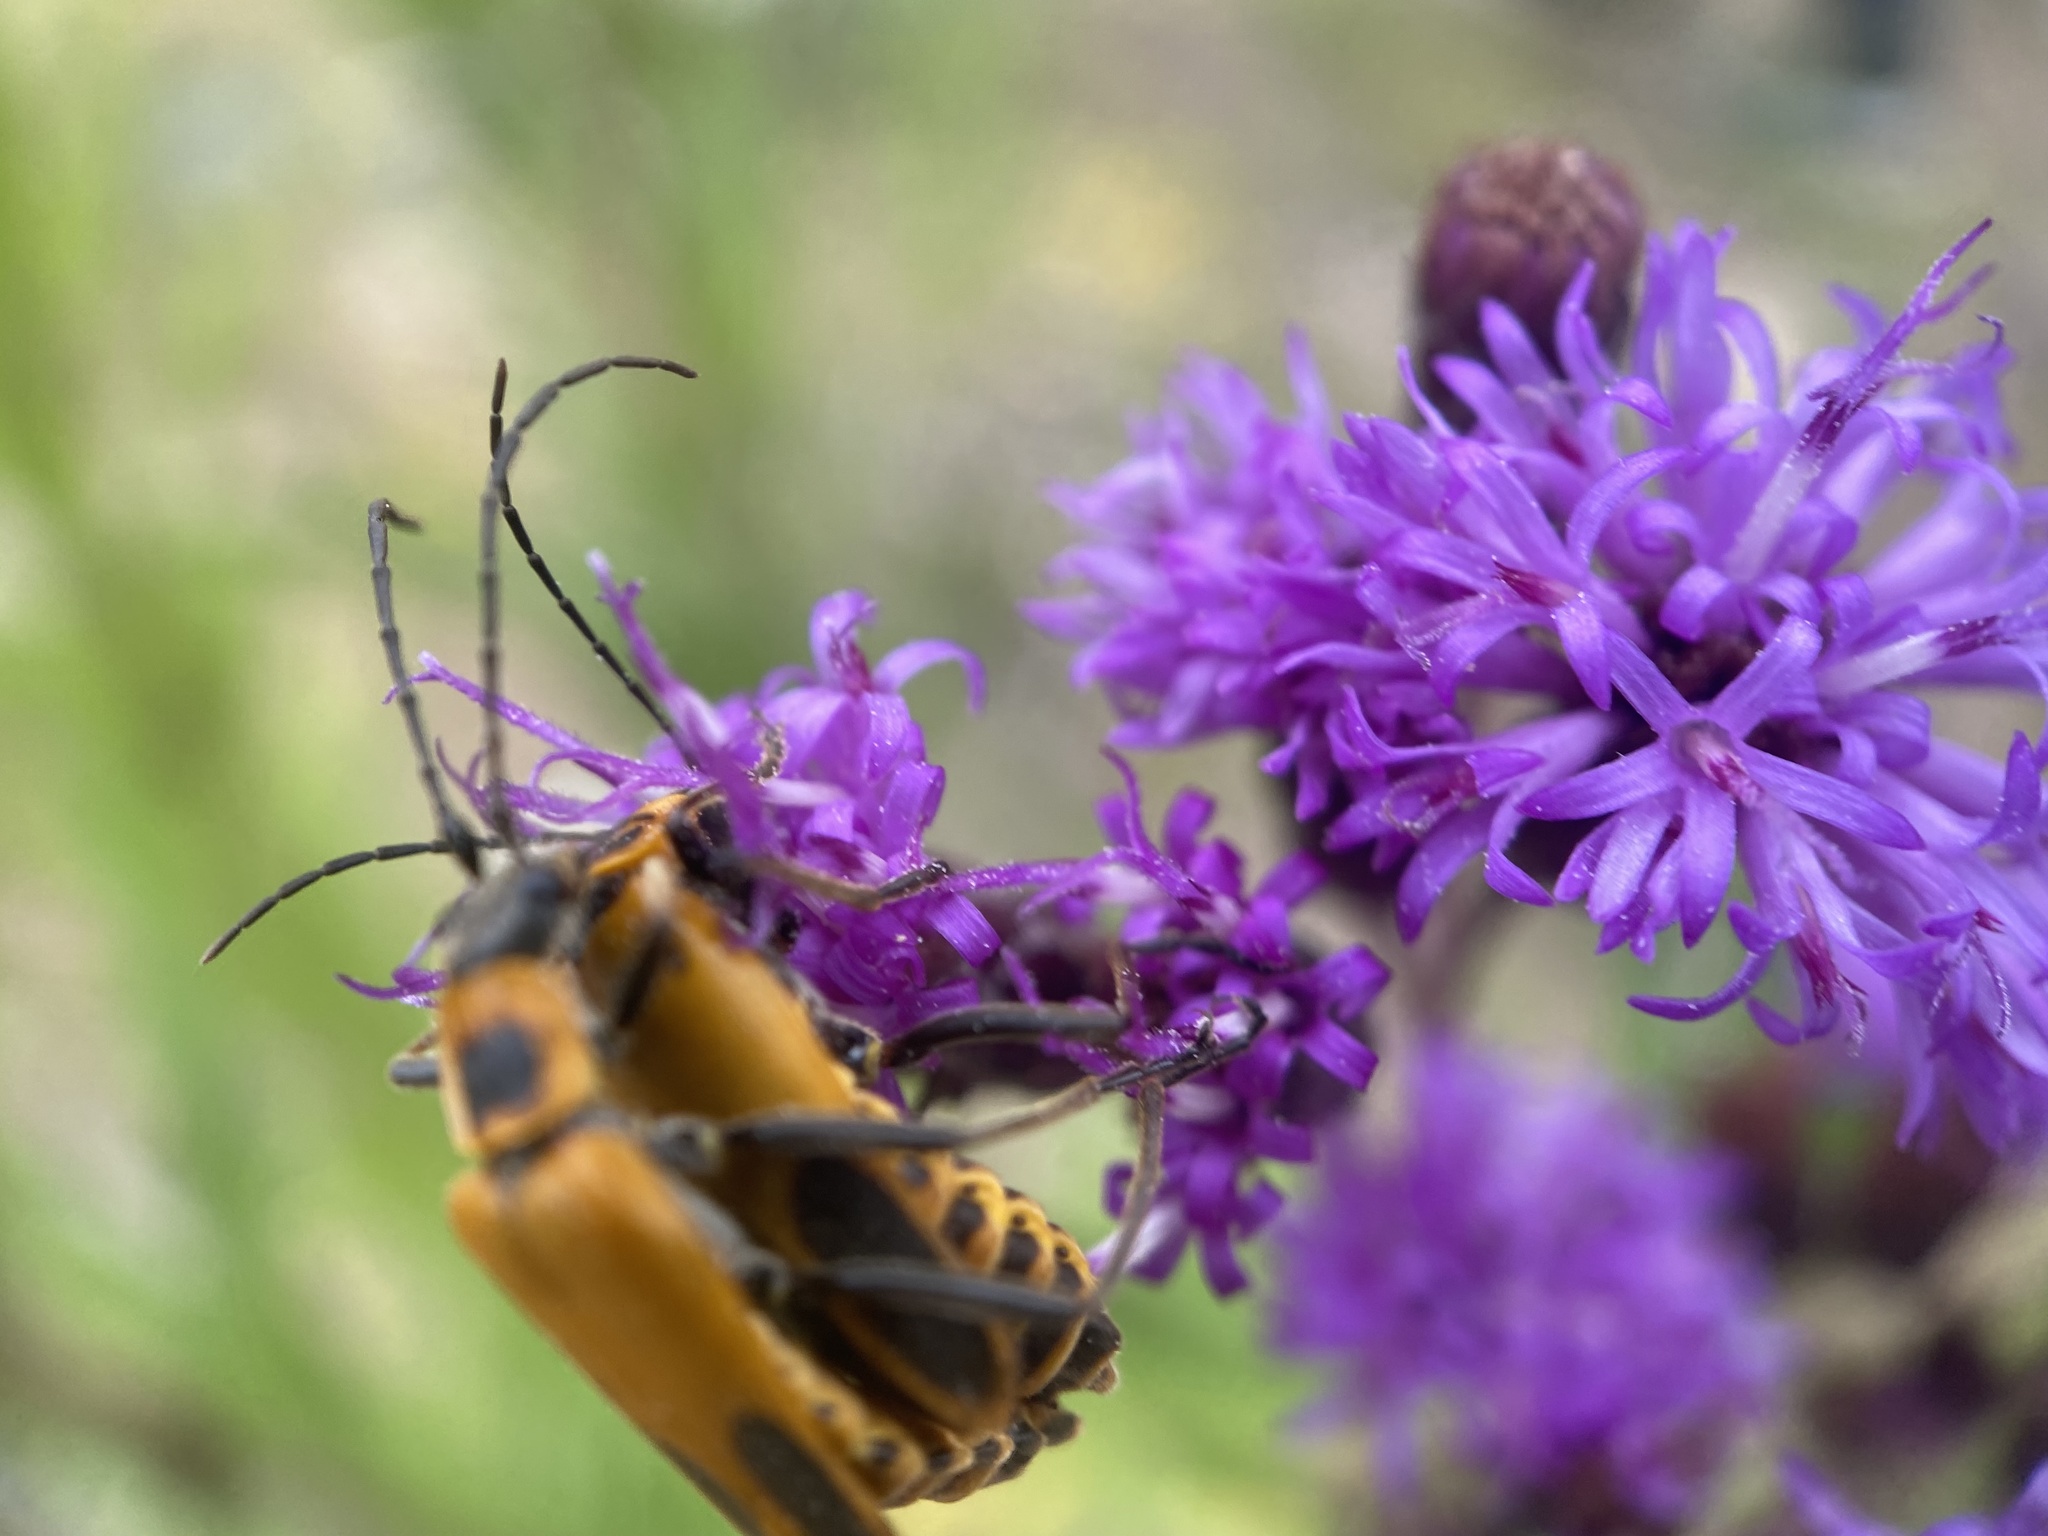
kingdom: Animalia
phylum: Arthropoda
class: Insecta
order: Coleoptera
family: Cantharidae
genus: Chauliognathus
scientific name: Chauliognathus pensylvanicus
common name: Goldenrod soldier beetle
